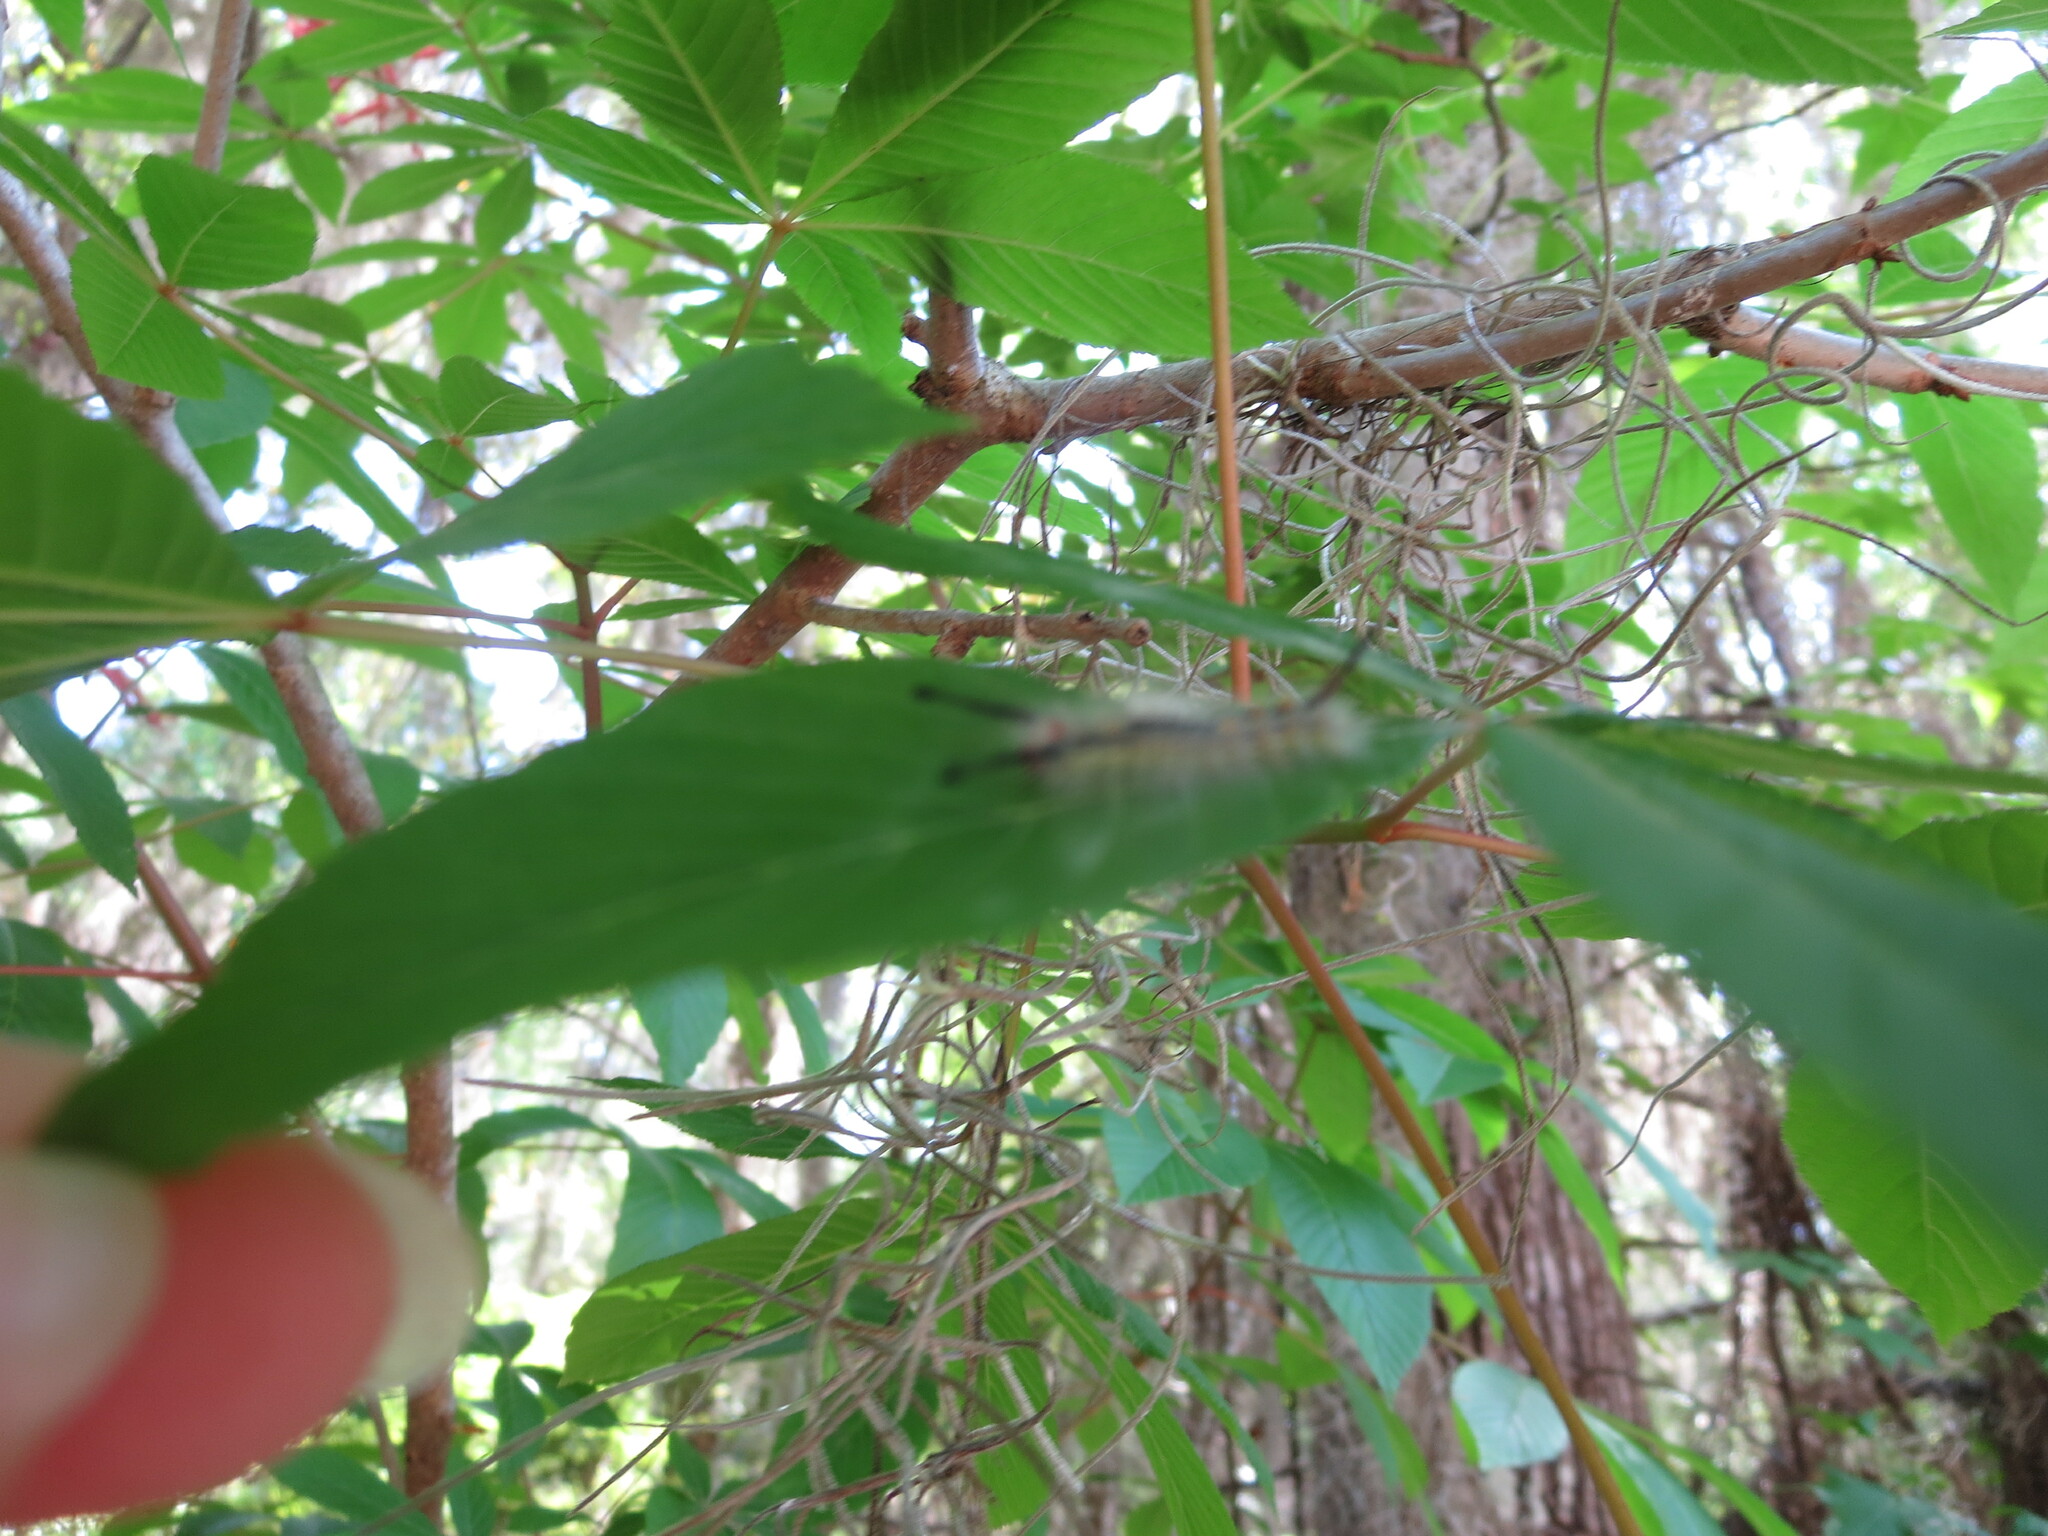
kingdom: Animalia
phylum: Arthropoda
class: Insecta
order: Lepidoptera
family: Erebidae
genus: Orgyia
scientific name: Orgyia detrita
